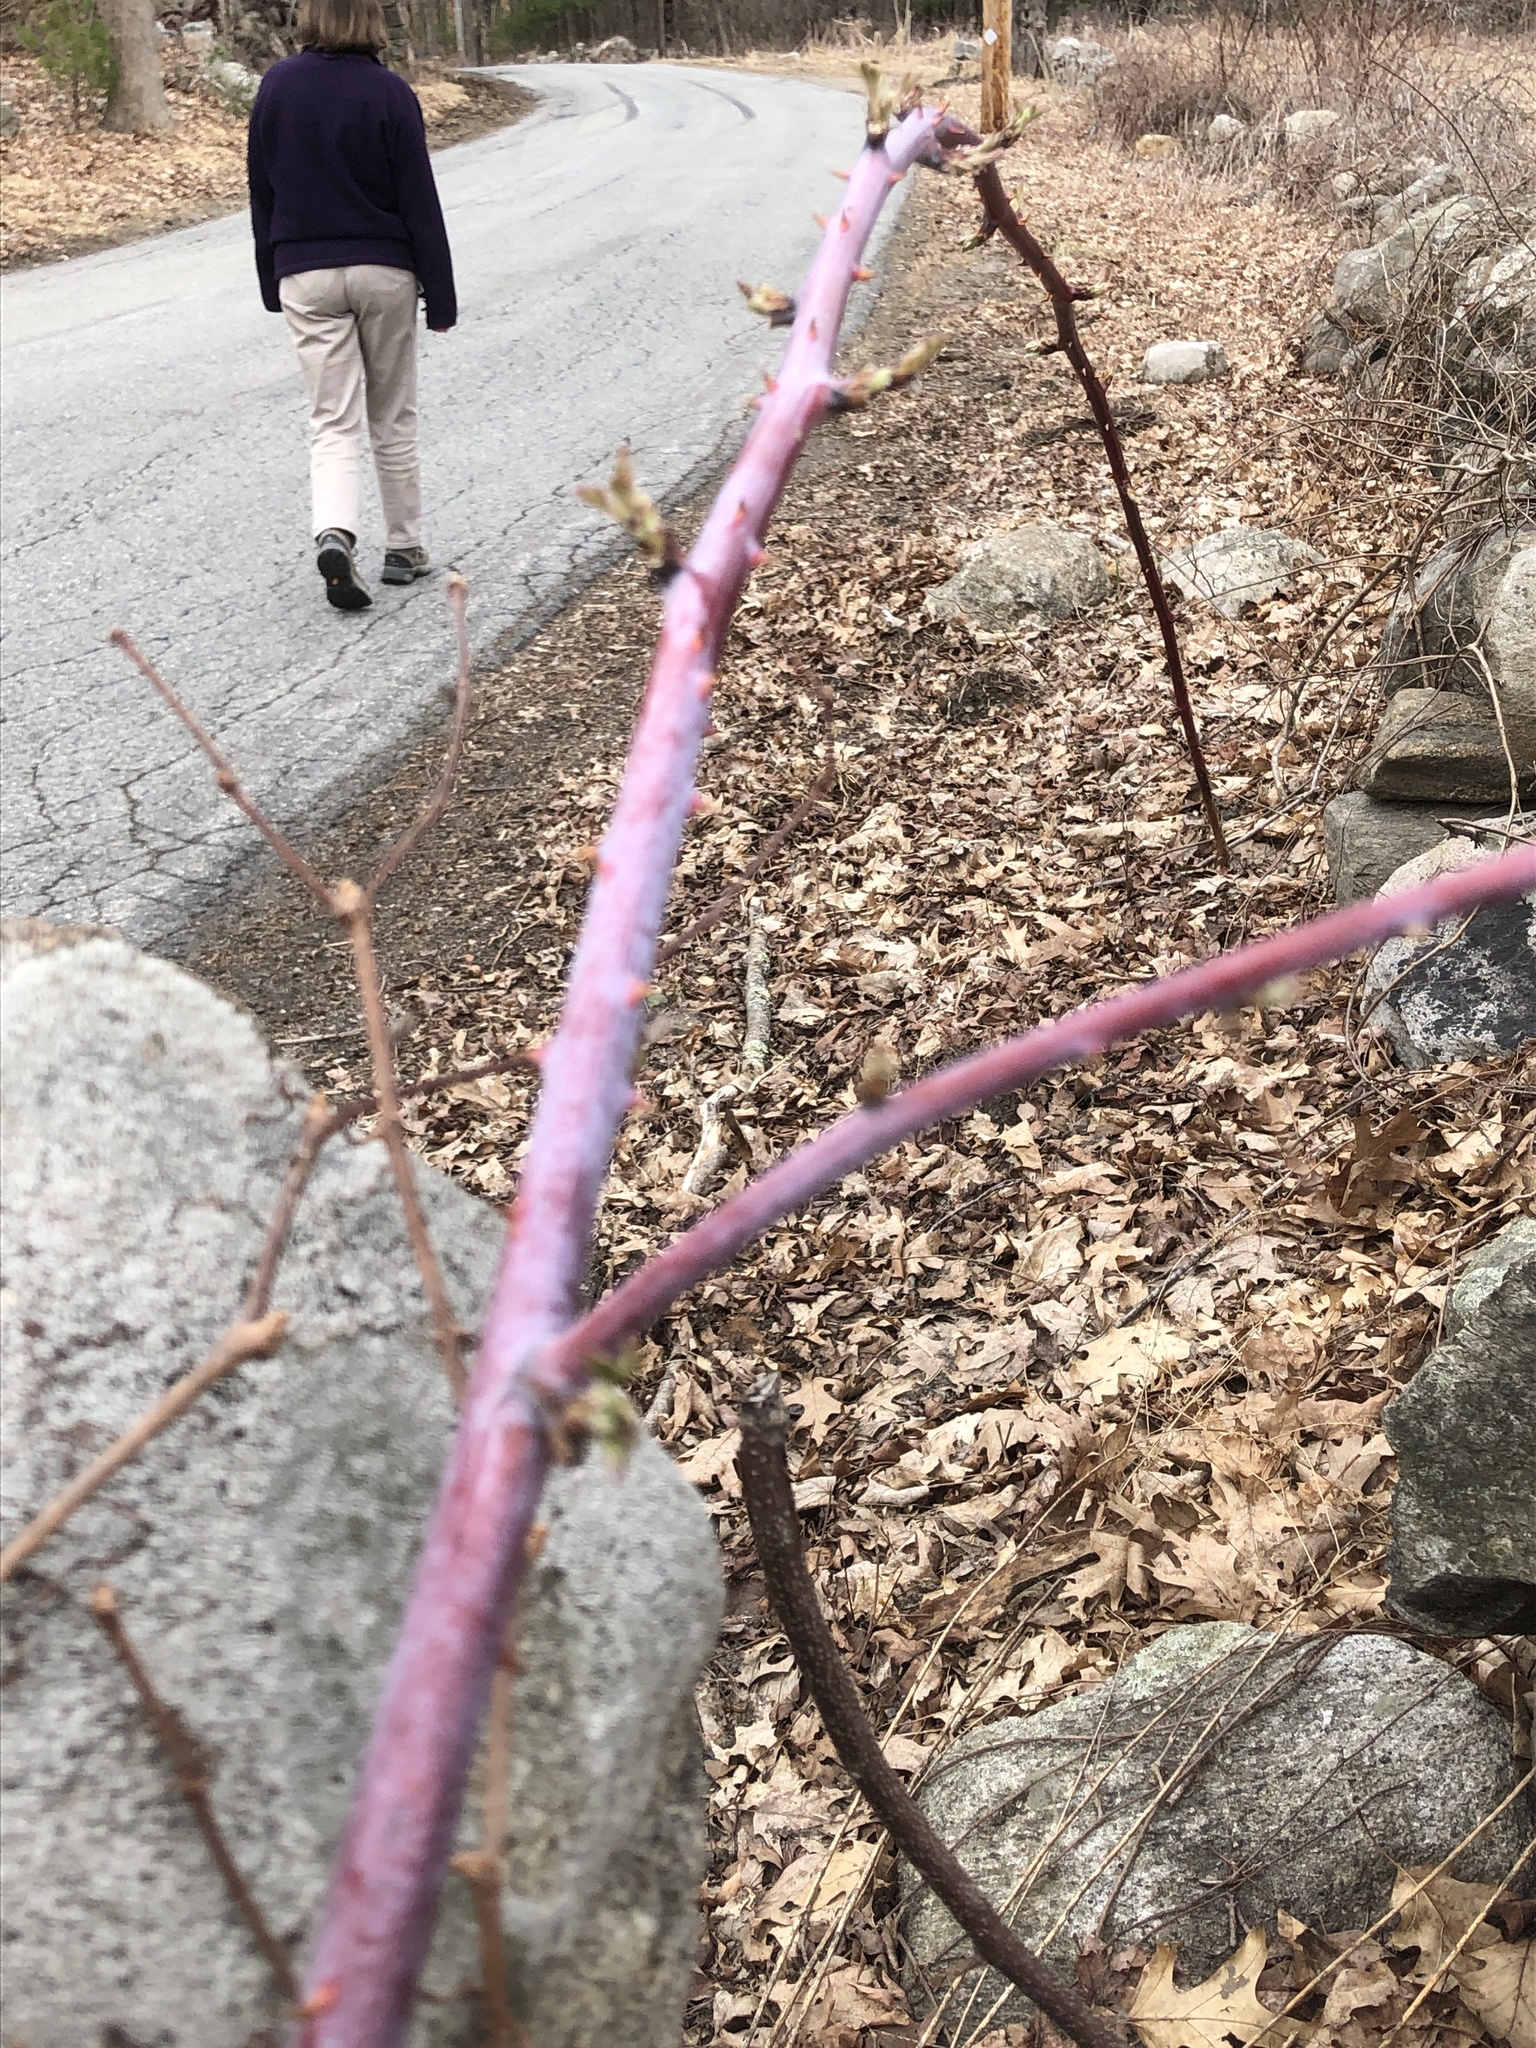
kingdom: Plantae
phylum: Tracheophyta
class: Magnoliopsida
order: Rosales
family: Rosaceae
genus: Rubus
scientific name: Rubus occidentalis
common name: Black raspberry
